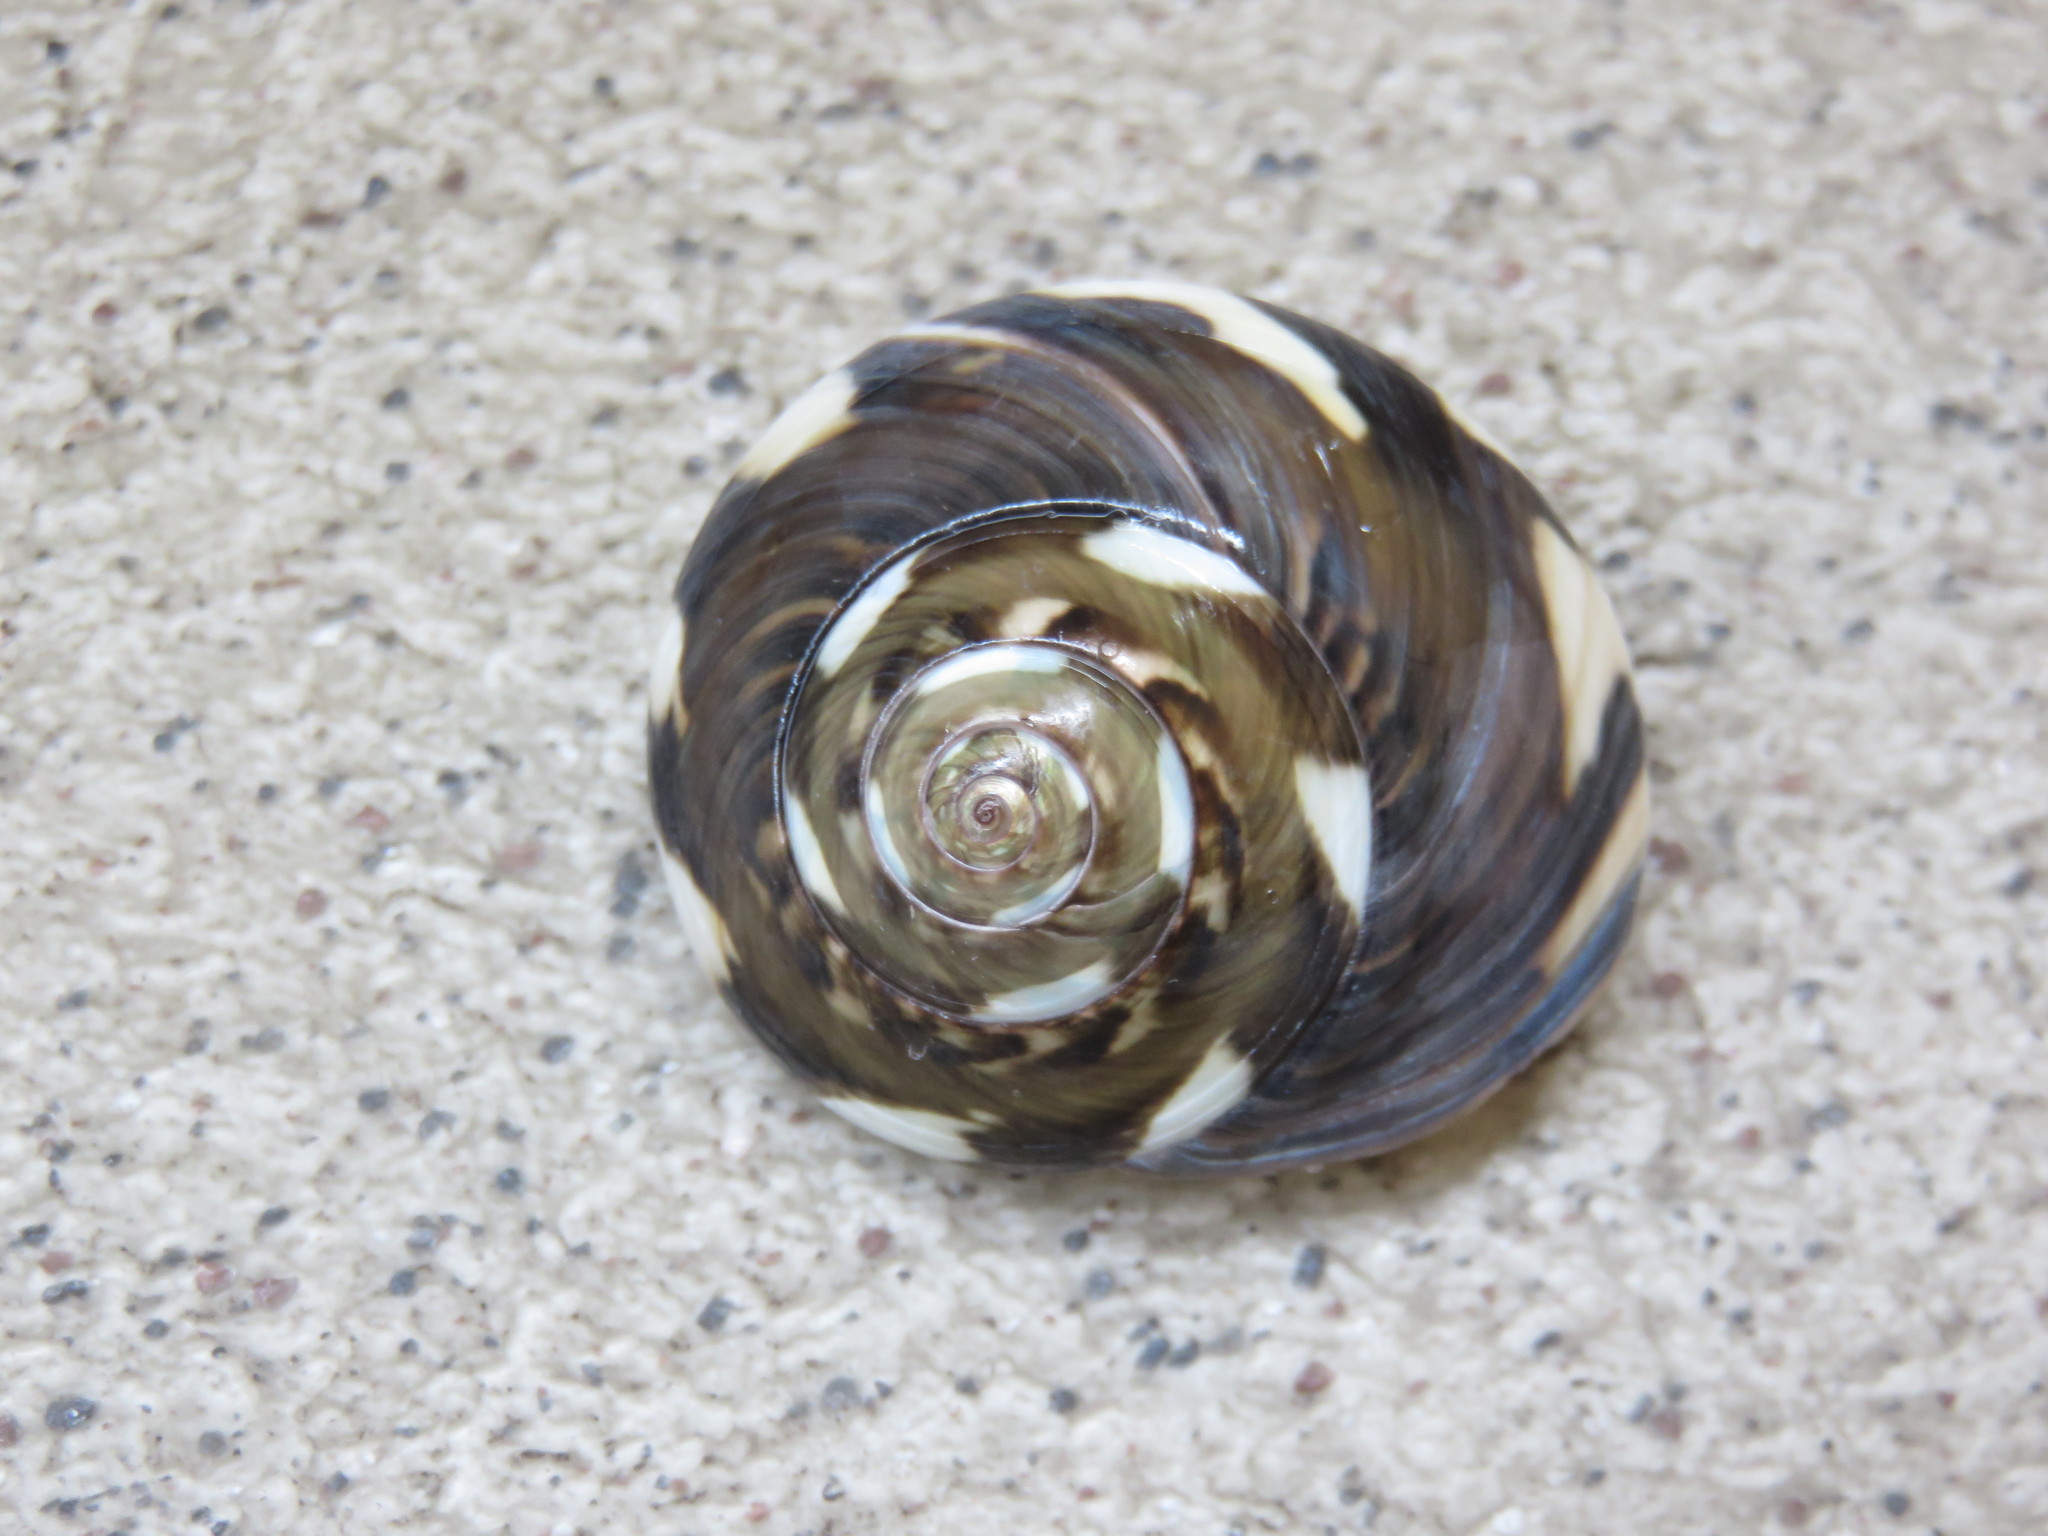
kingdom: Animalia
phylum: Mollusca
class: Gastropoda
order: Trochida
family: Trochidae
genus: Umbonium
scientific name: Umbonium giganteum
